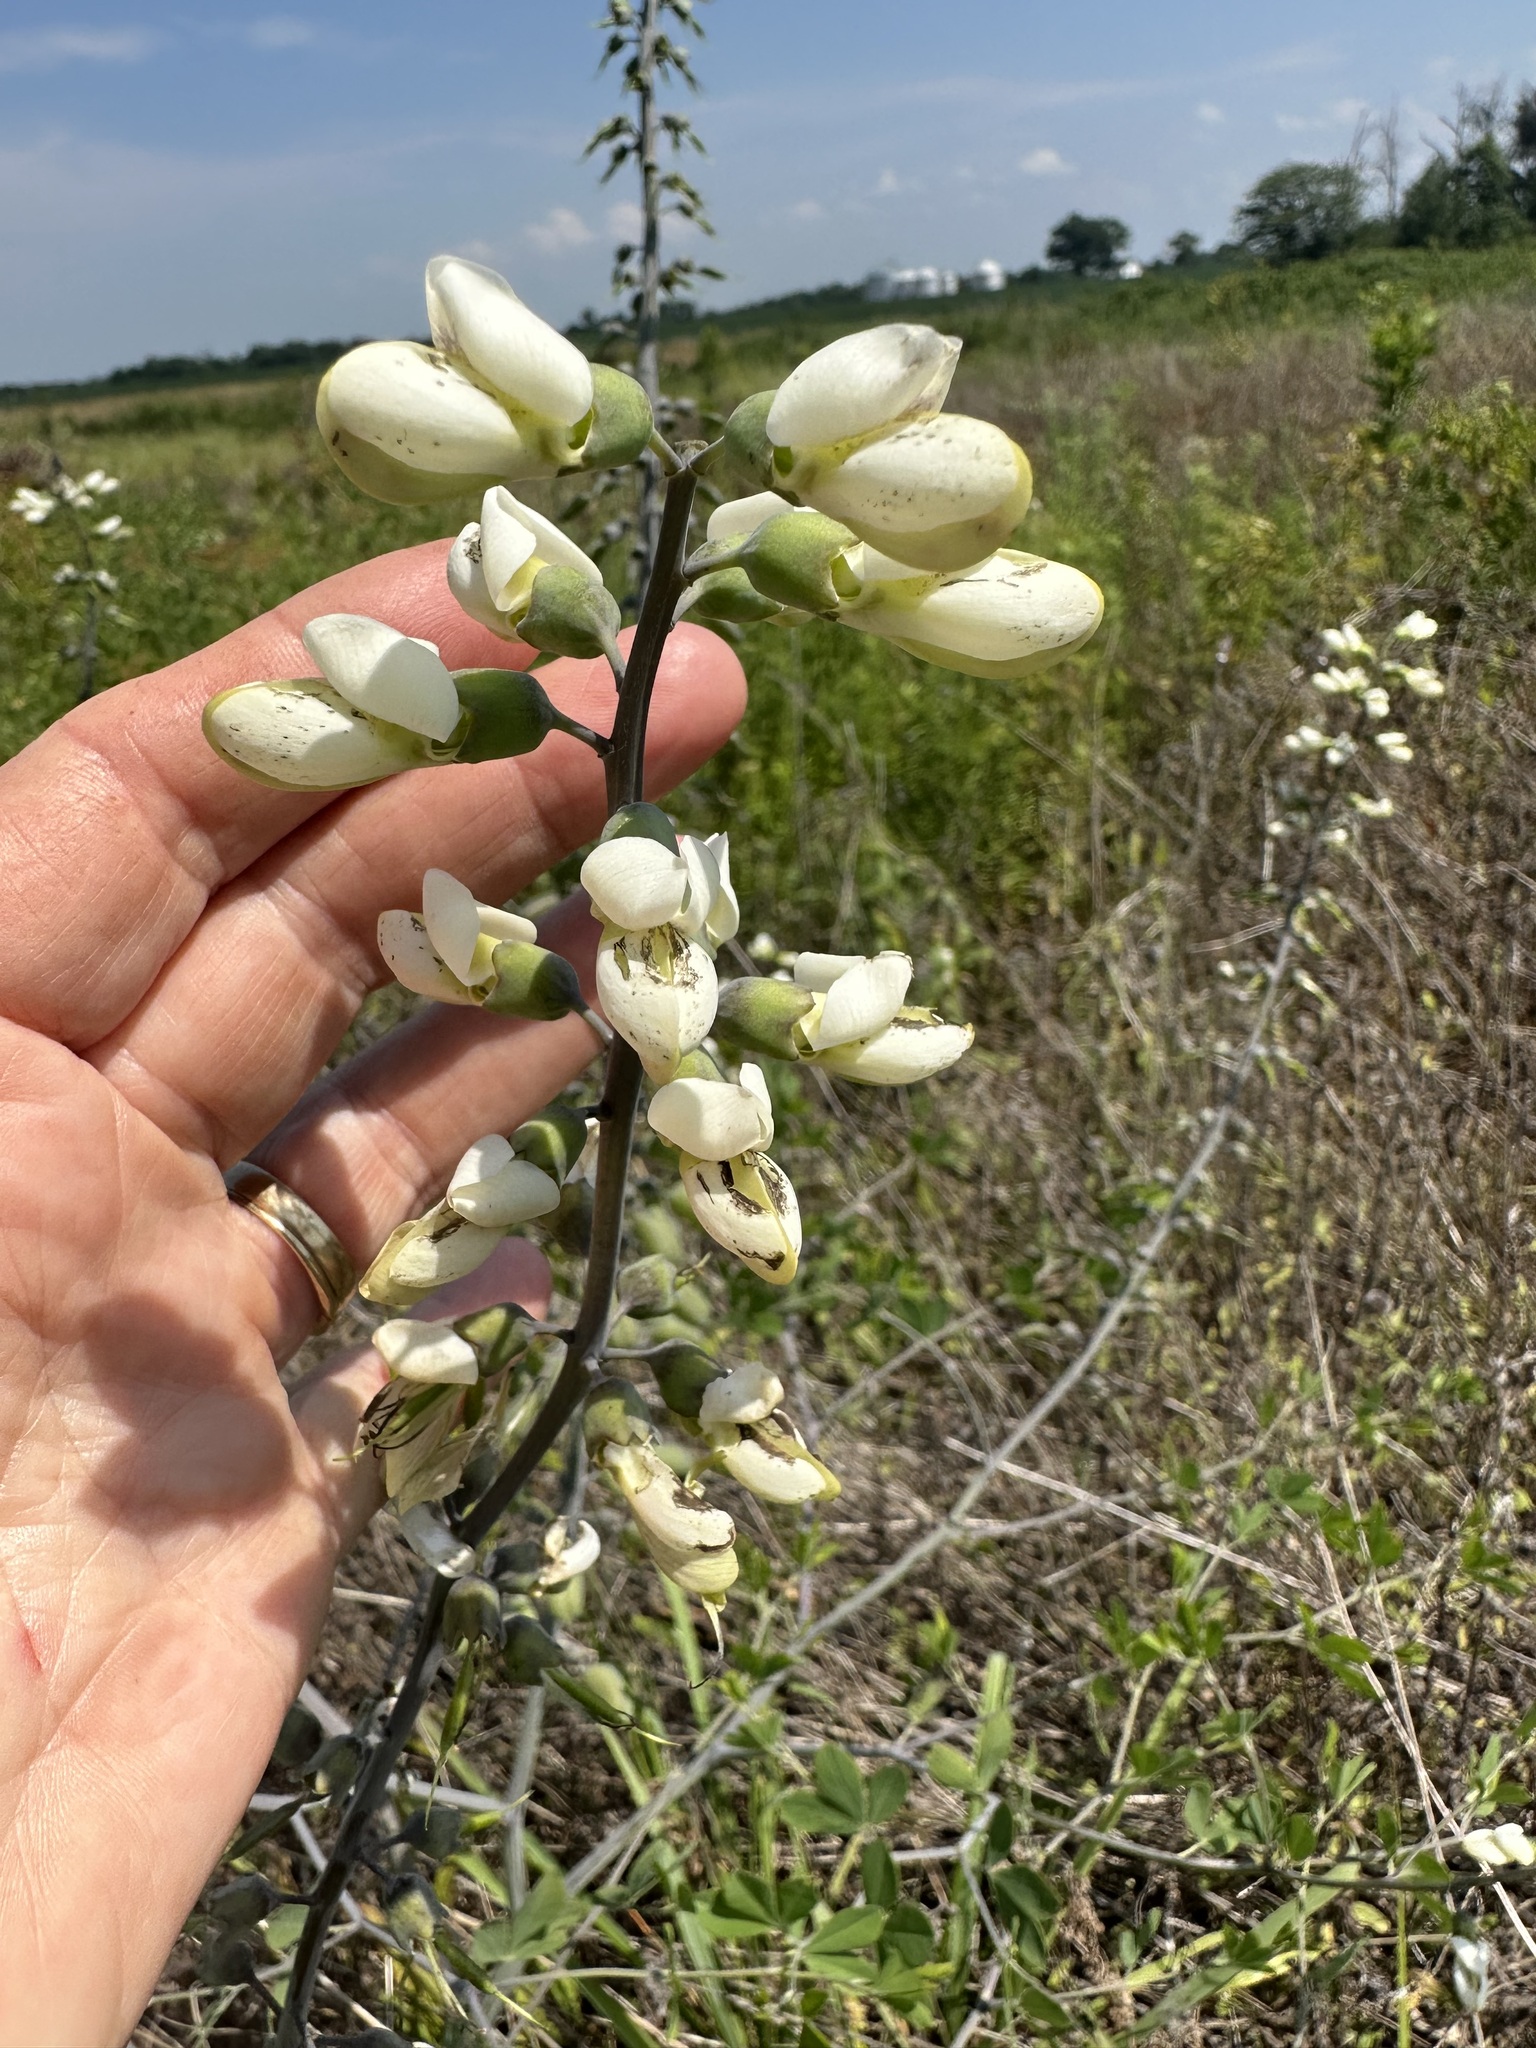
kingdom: Plantae
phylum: Tracheophyta
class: Magnoliopsida
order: Fabales
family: Fabaceae
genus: Baptisia
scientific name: Baptisia alba
